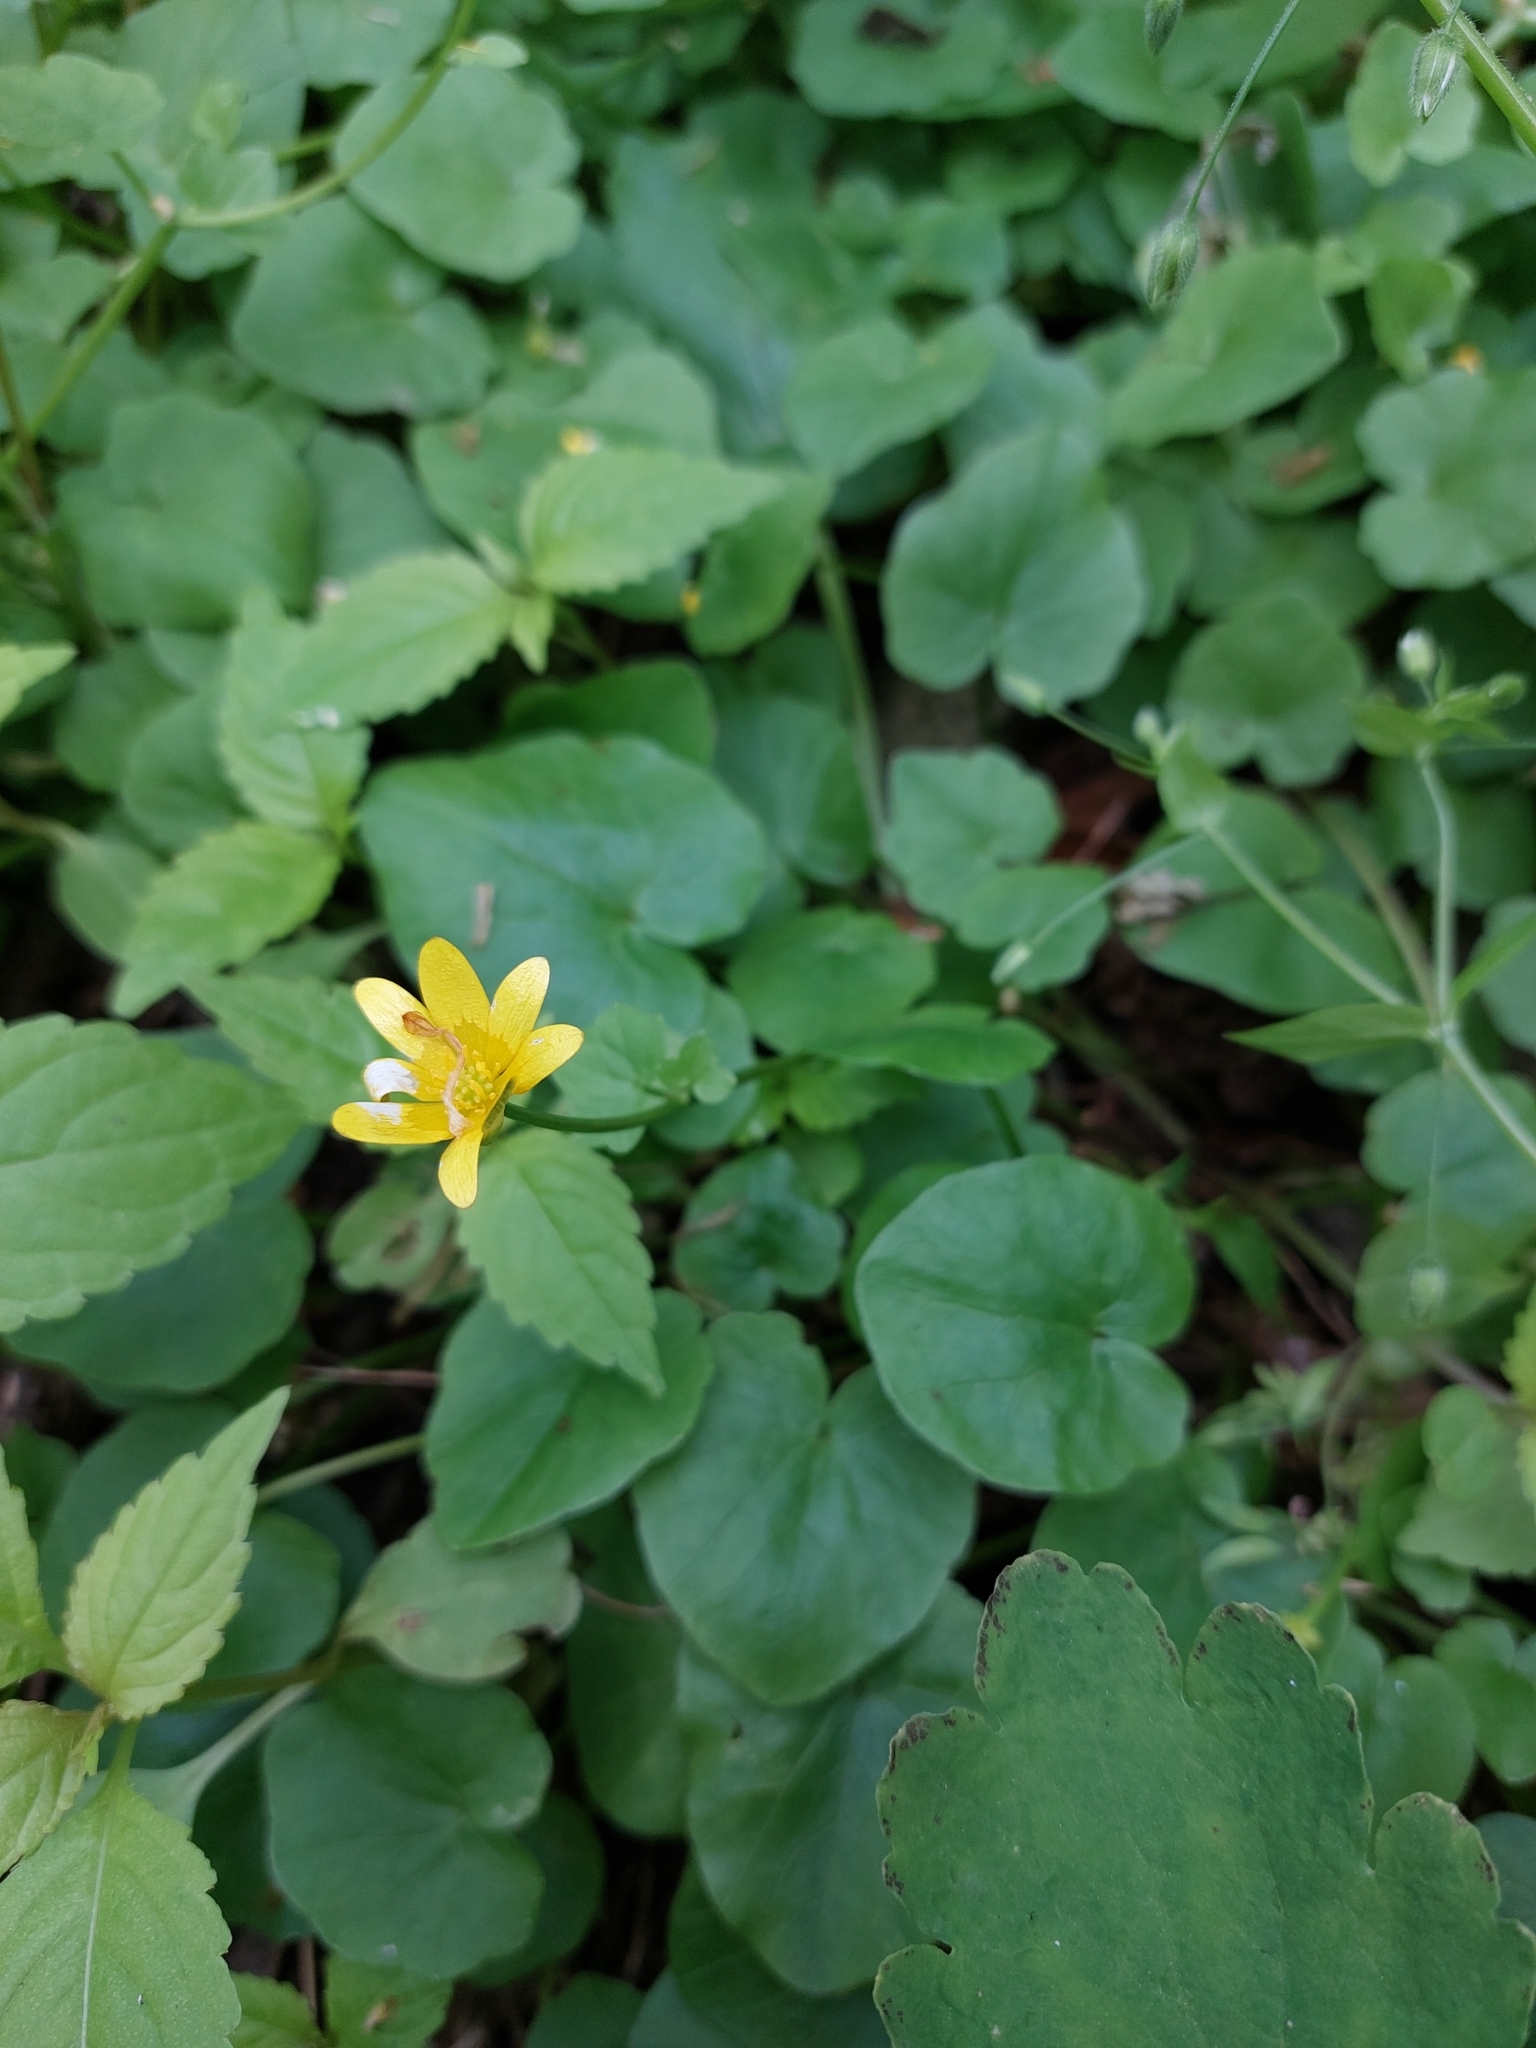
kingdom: Plantae
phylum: Tracheophyta
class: Magnoliopsida
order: Ranunculales
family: Ranunculaceae
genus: Ficaria
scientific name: Ficaria verna
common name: Lesser celandine
